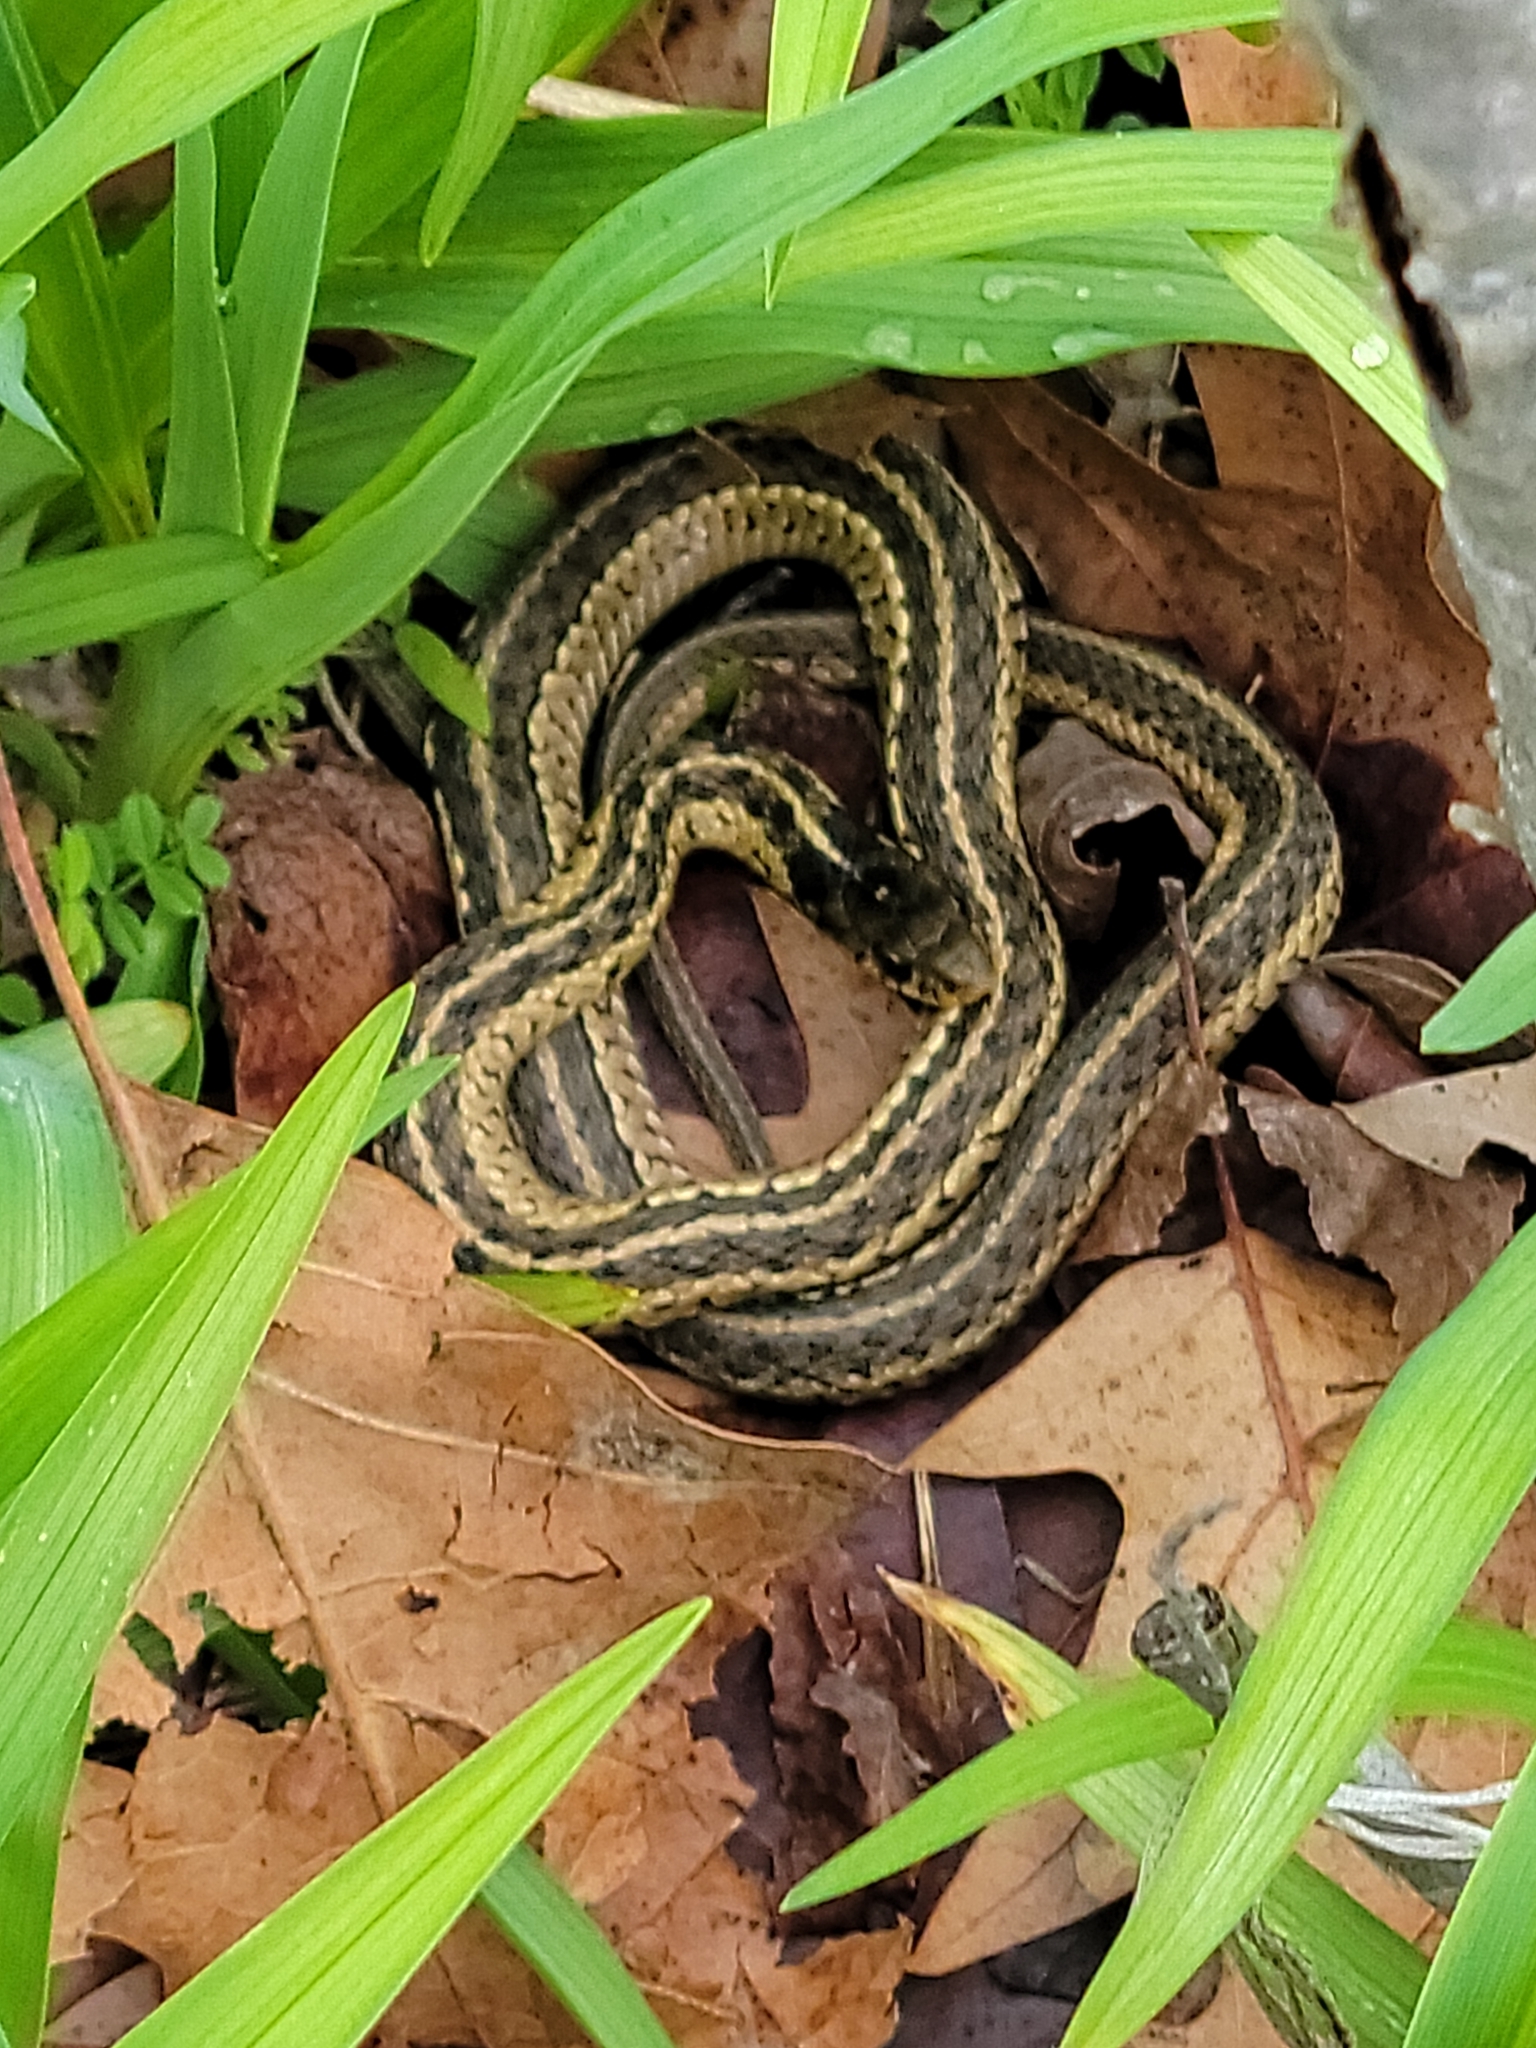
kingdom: Animalia
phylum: Chordata
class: Squamata
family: Colubridae
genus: Thamnophis
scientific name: Thamnophis sirtalis
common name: Common garter snake
